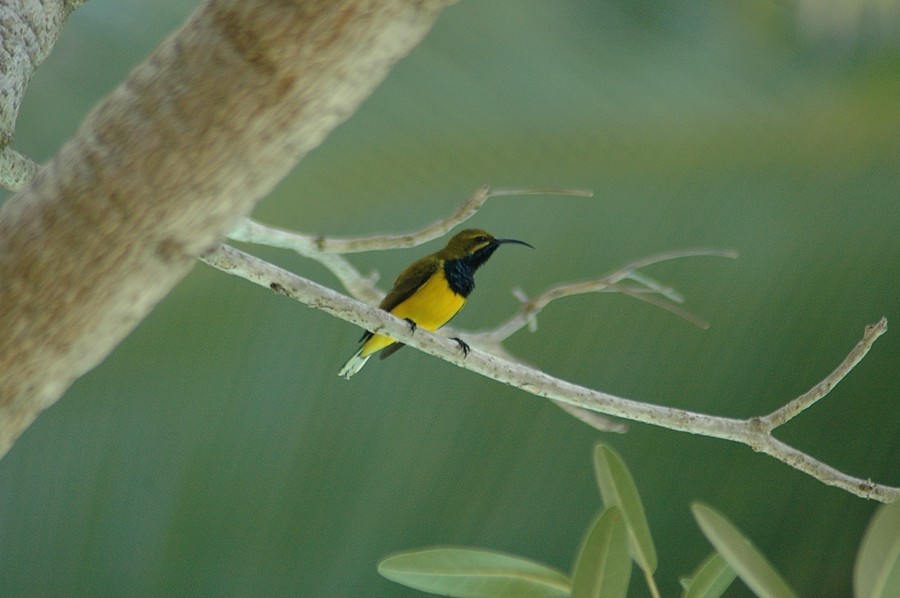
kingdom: Animalia
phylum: Chordata
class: Aves
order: Passeriformes
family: Nectariniidae
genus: Cinnyris
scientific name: Cinnyris
